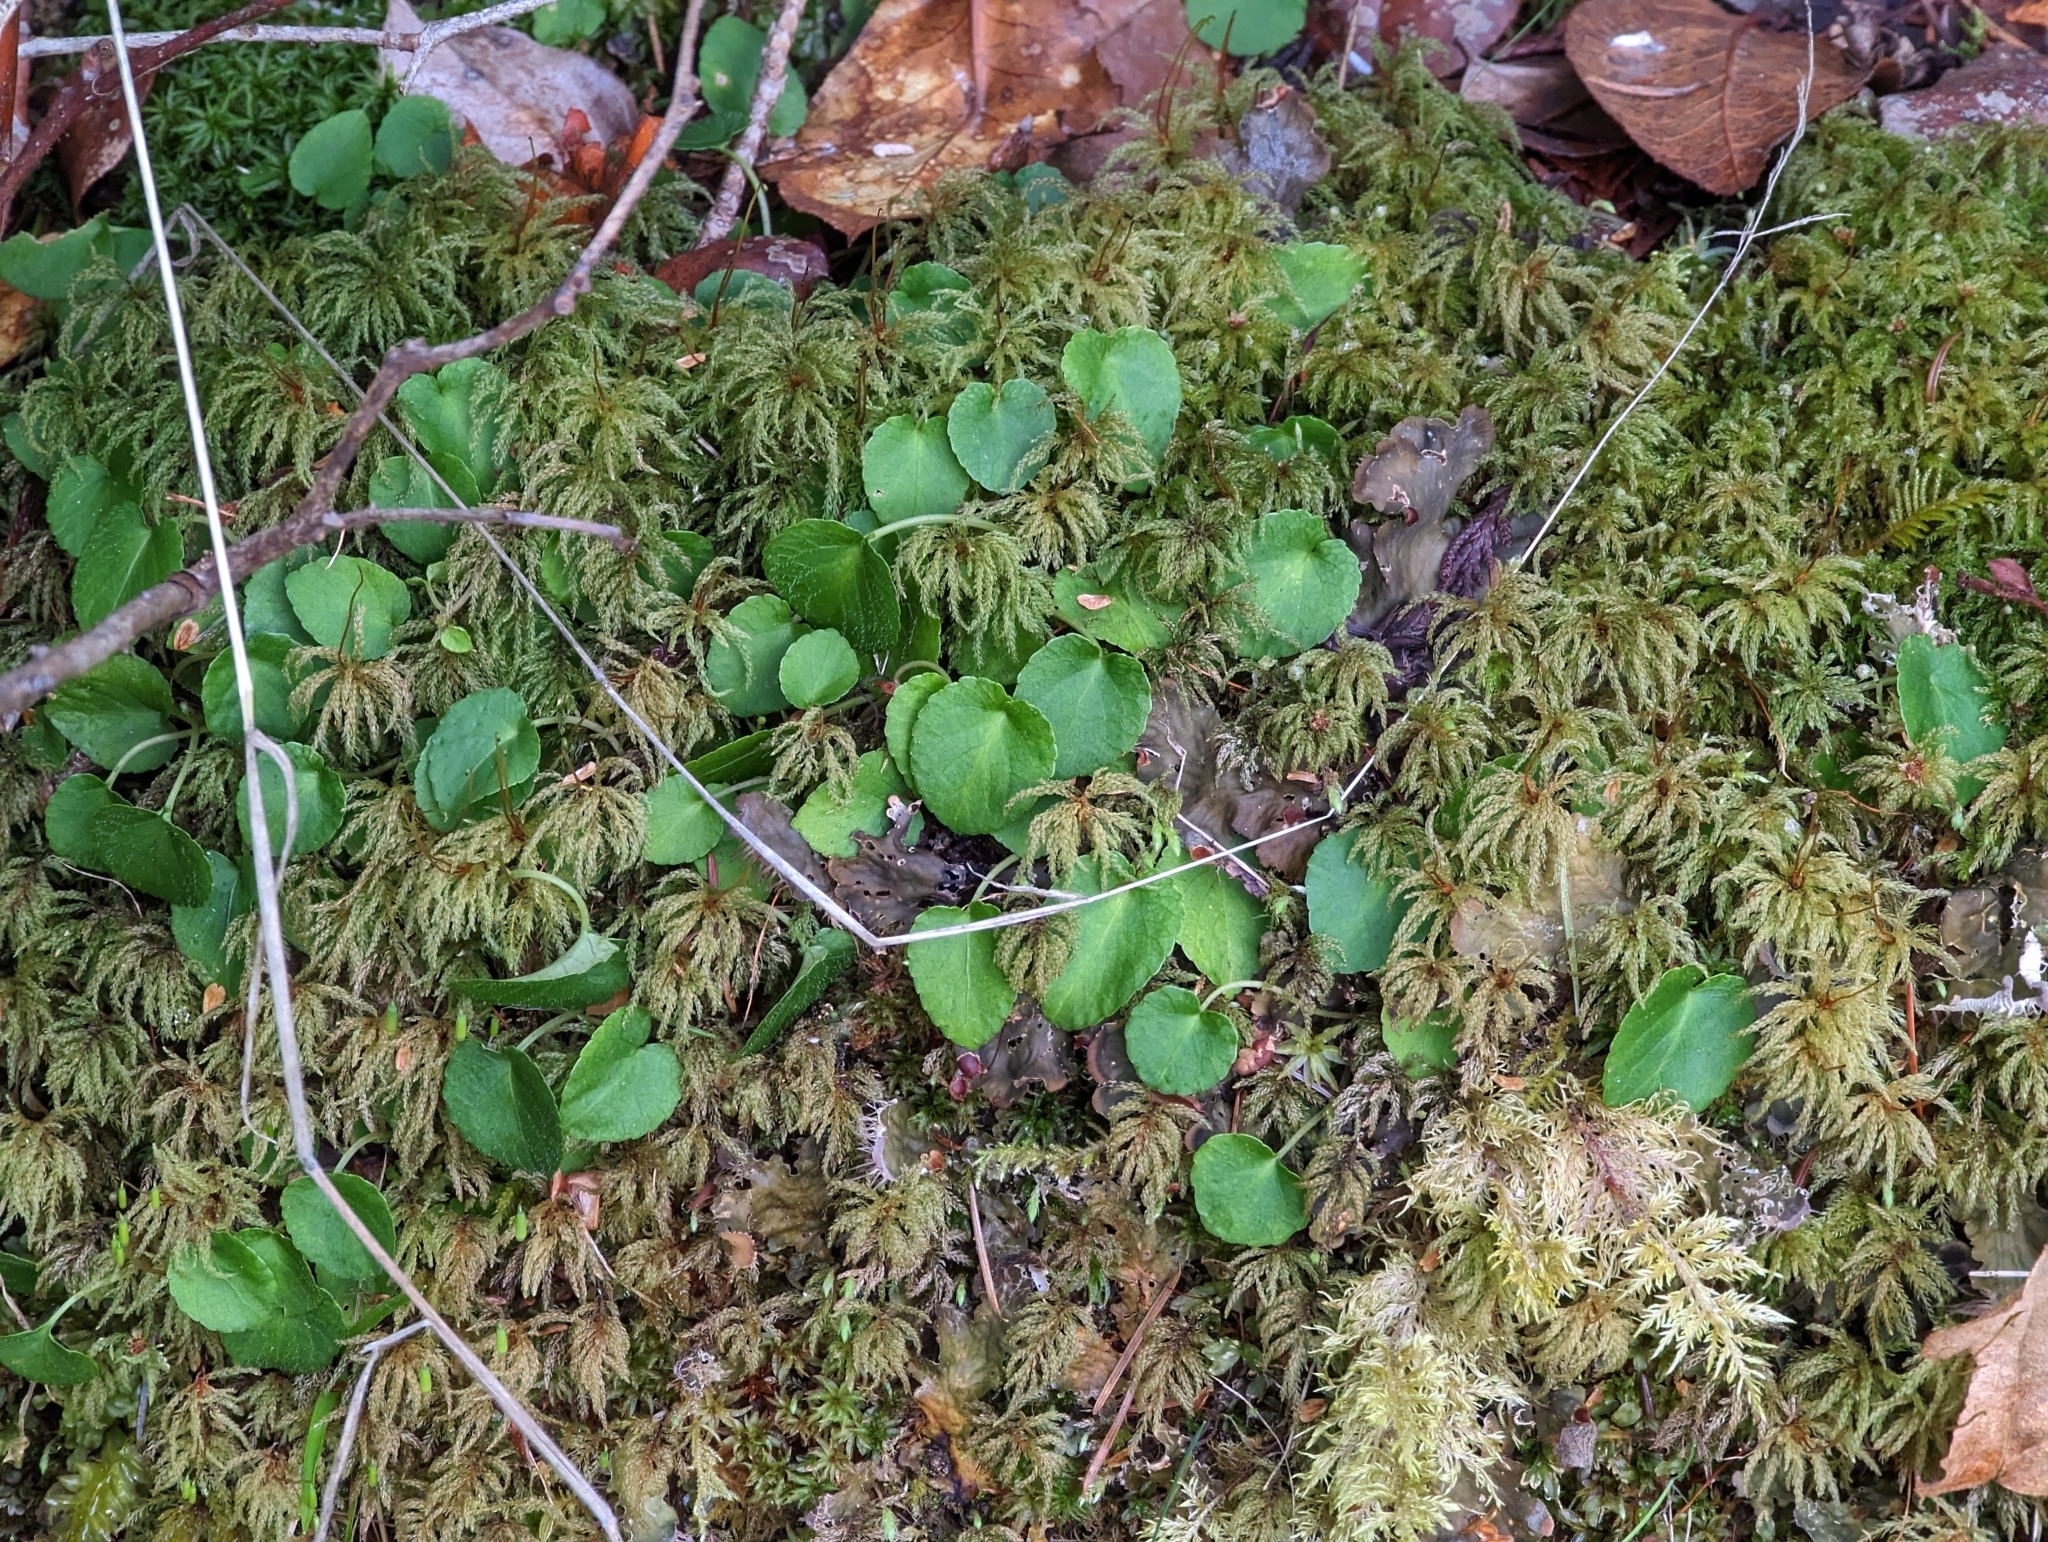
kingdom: Plantae
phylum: Tracheophyta
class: Magnoliopsida
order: Malpighiales
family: Violaceae
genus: Viola
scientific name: Viola sempervirens
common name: Evergreen violet
